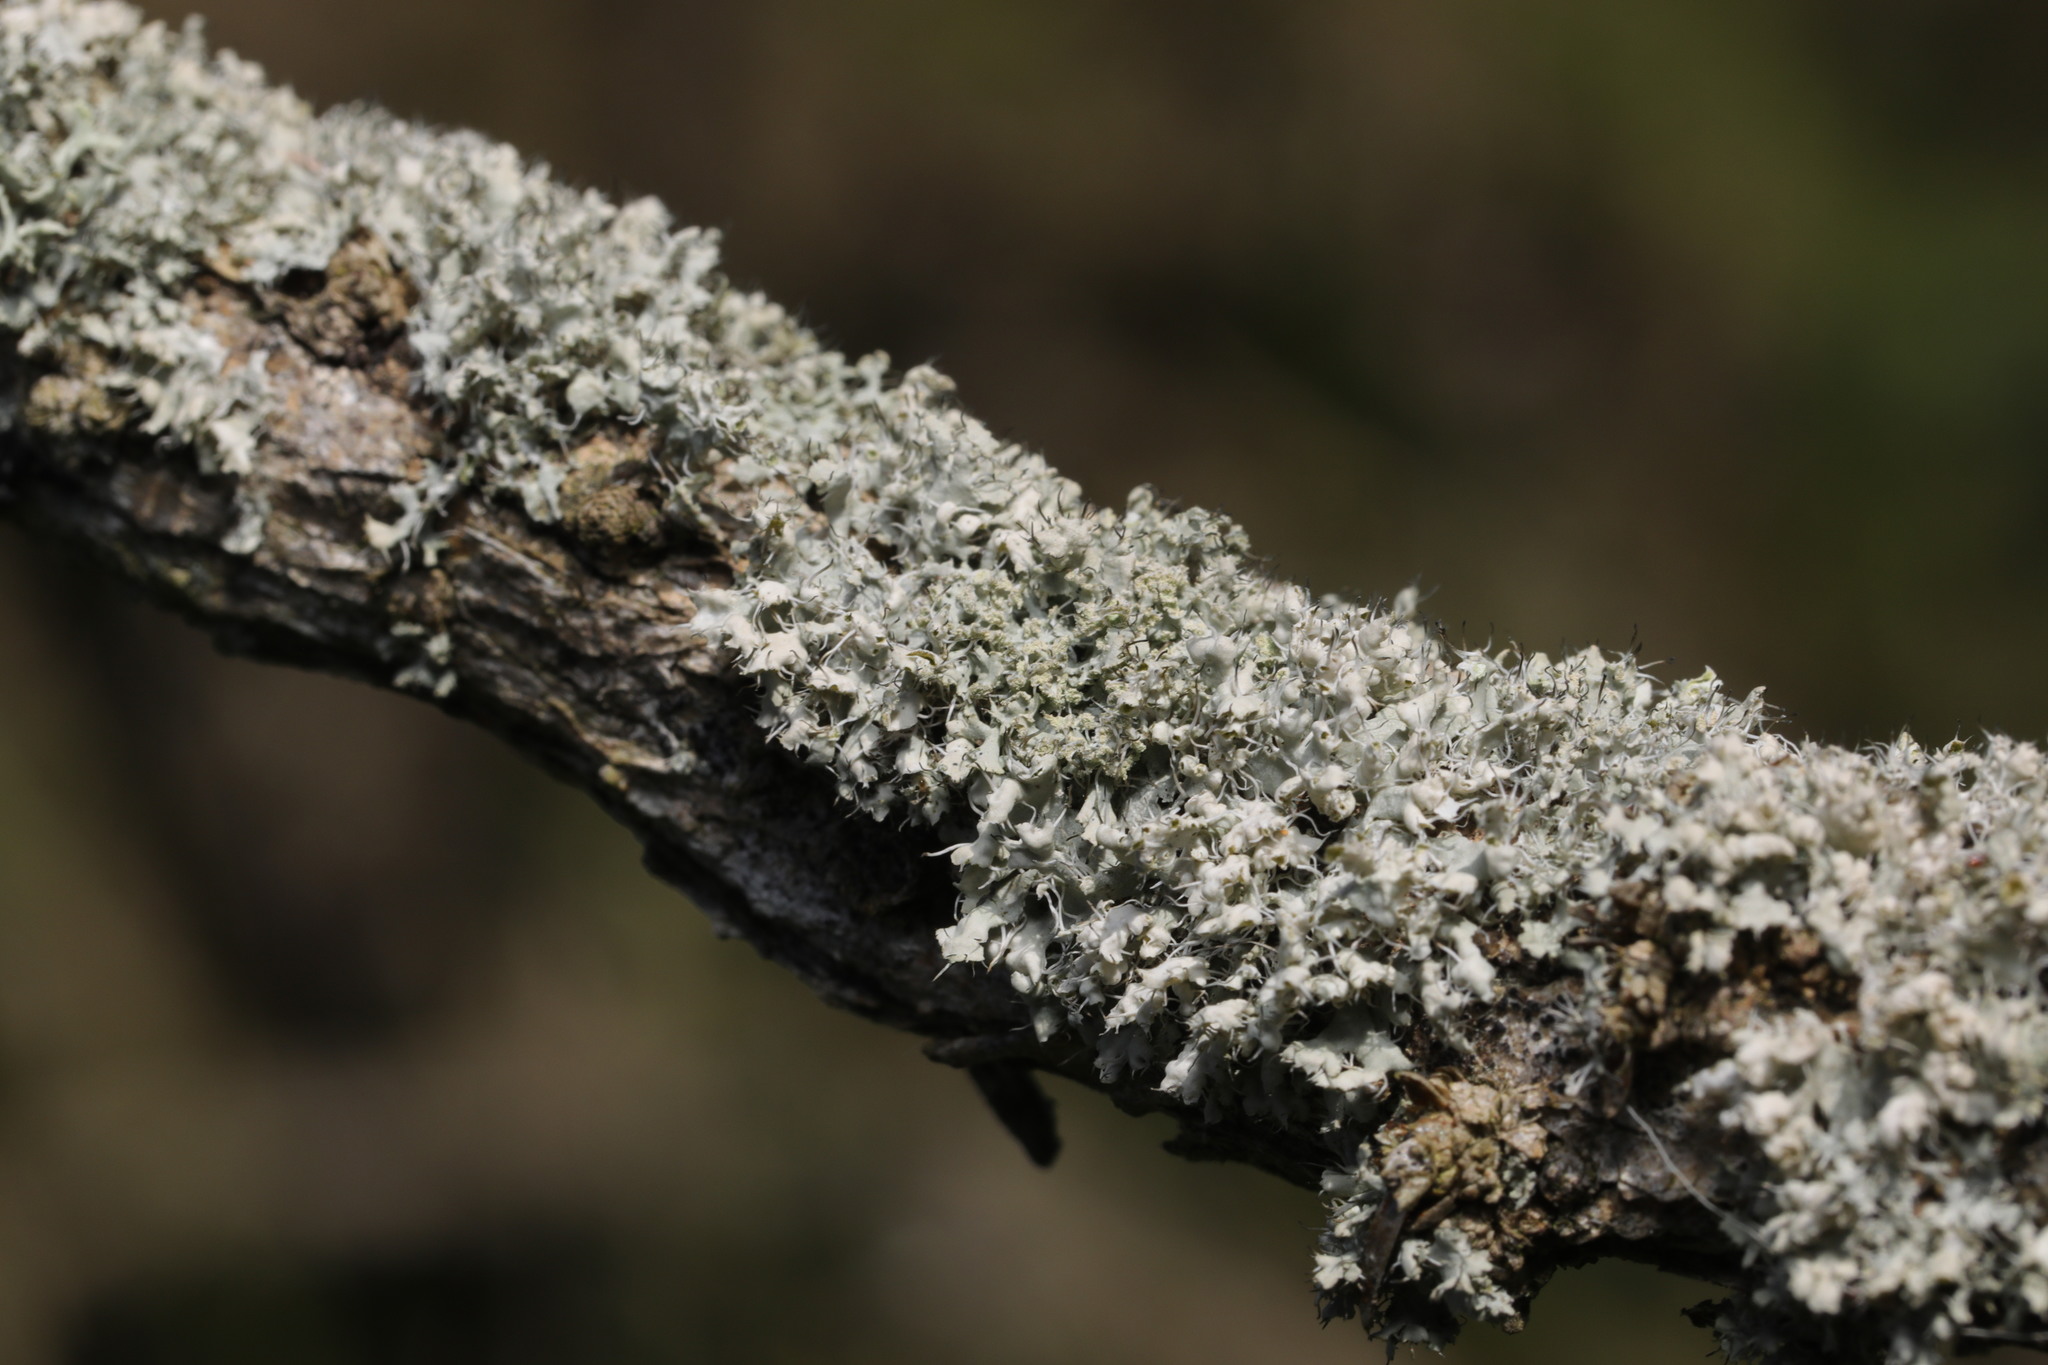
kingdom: Fungi
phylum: Ascomycota
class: Lecanoromycetes
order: Caliciales
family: Physciaceae
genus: Physcia
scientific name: Physcia adscendens
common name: Hooded rosette lichen
